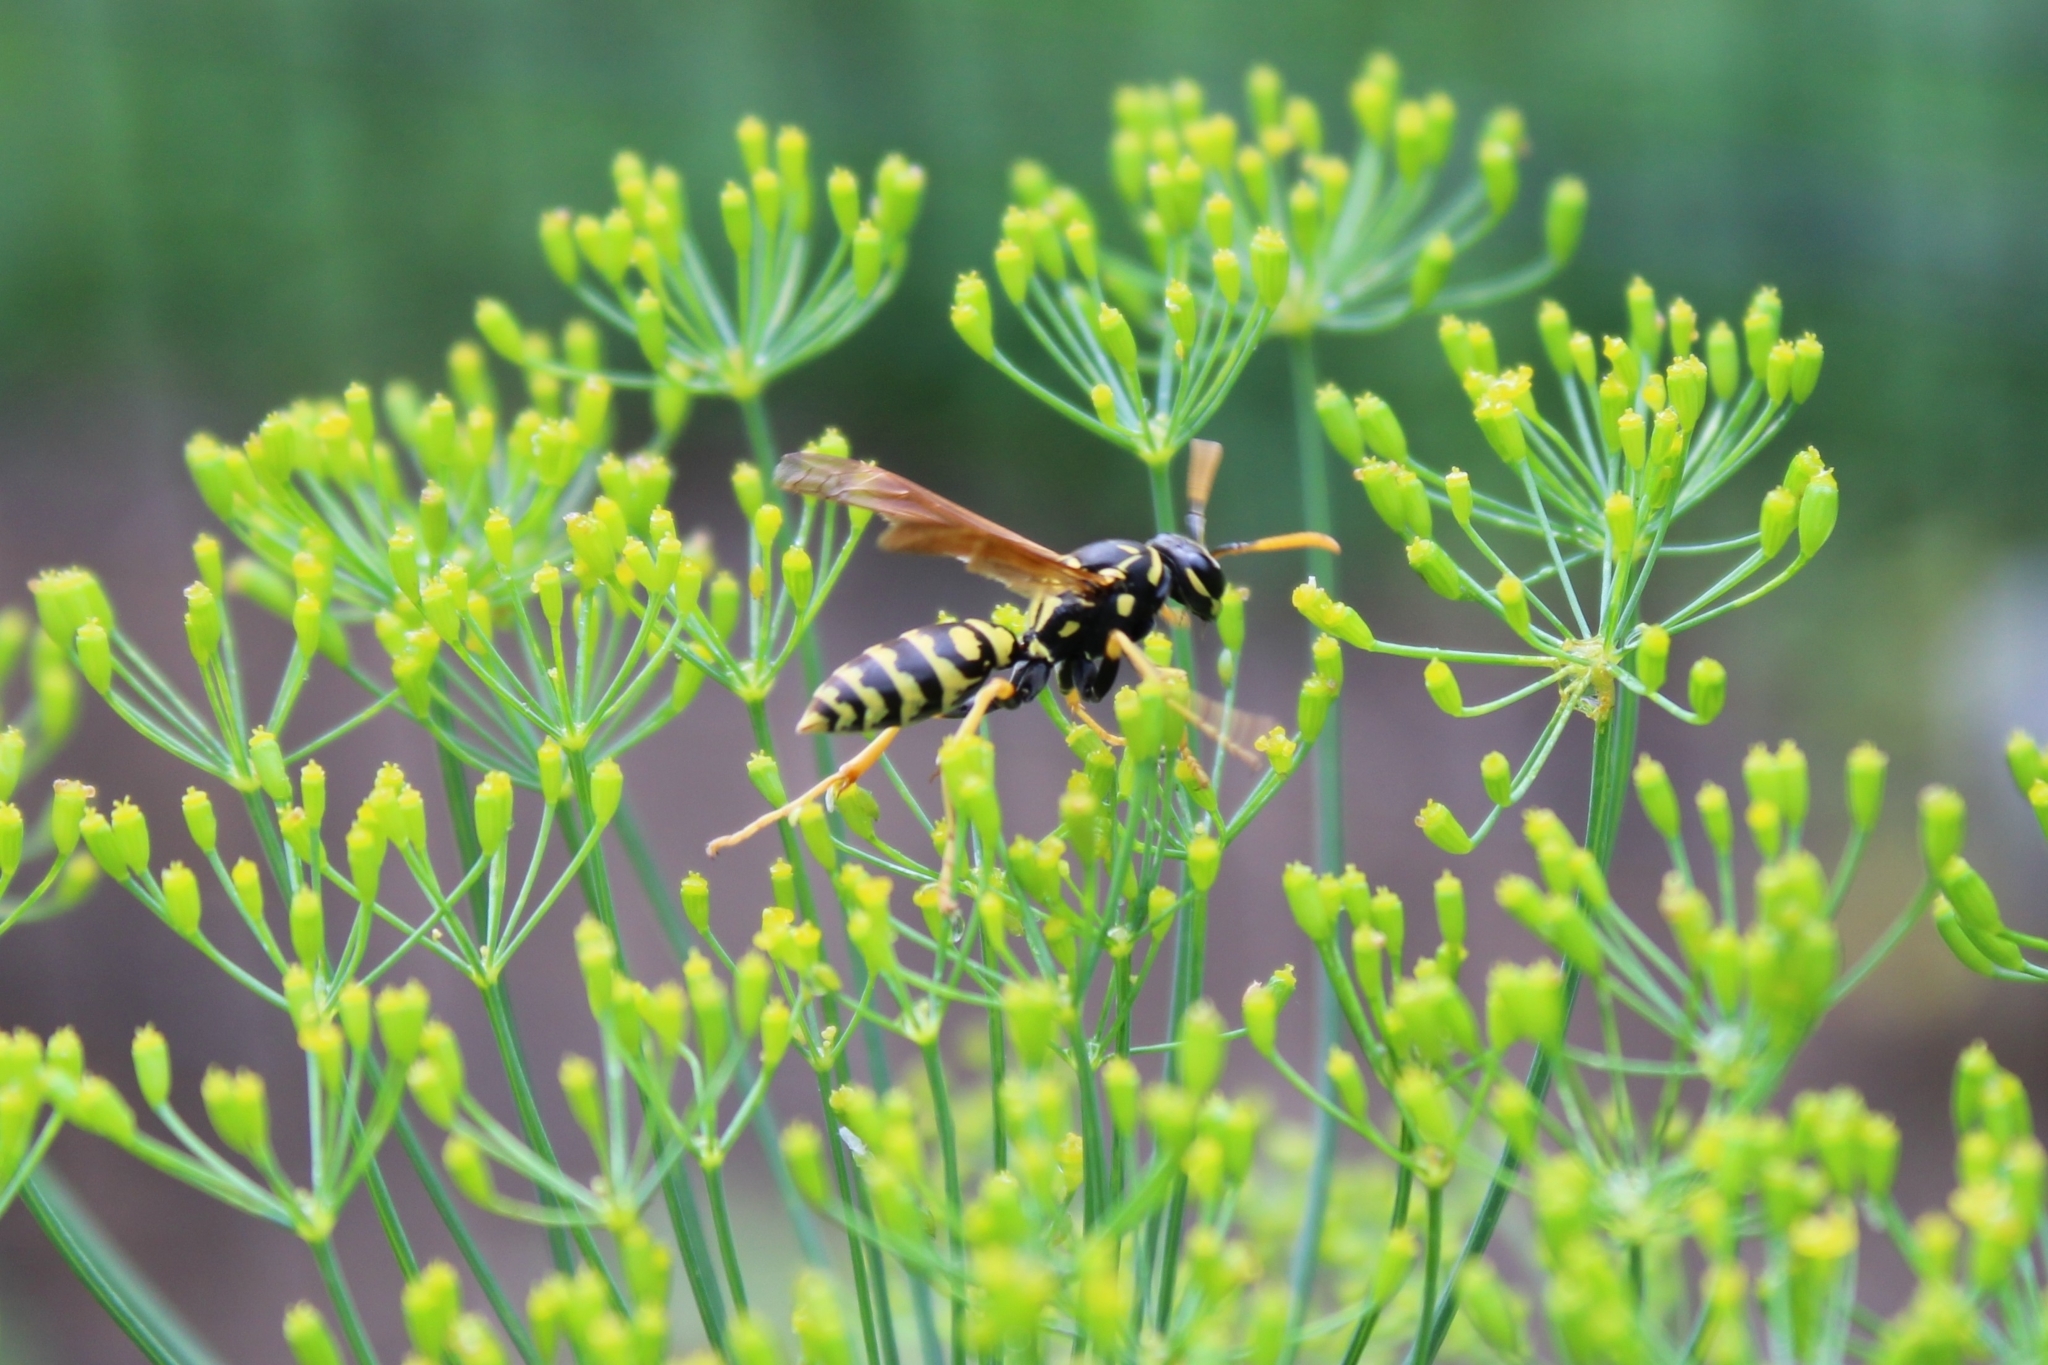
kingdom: Animalia
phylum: Arthropoda
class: Insecta
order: Hymenoptera
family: Eumenidae
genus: Polistes
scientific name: Polistes dominula
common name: Paper wasp
